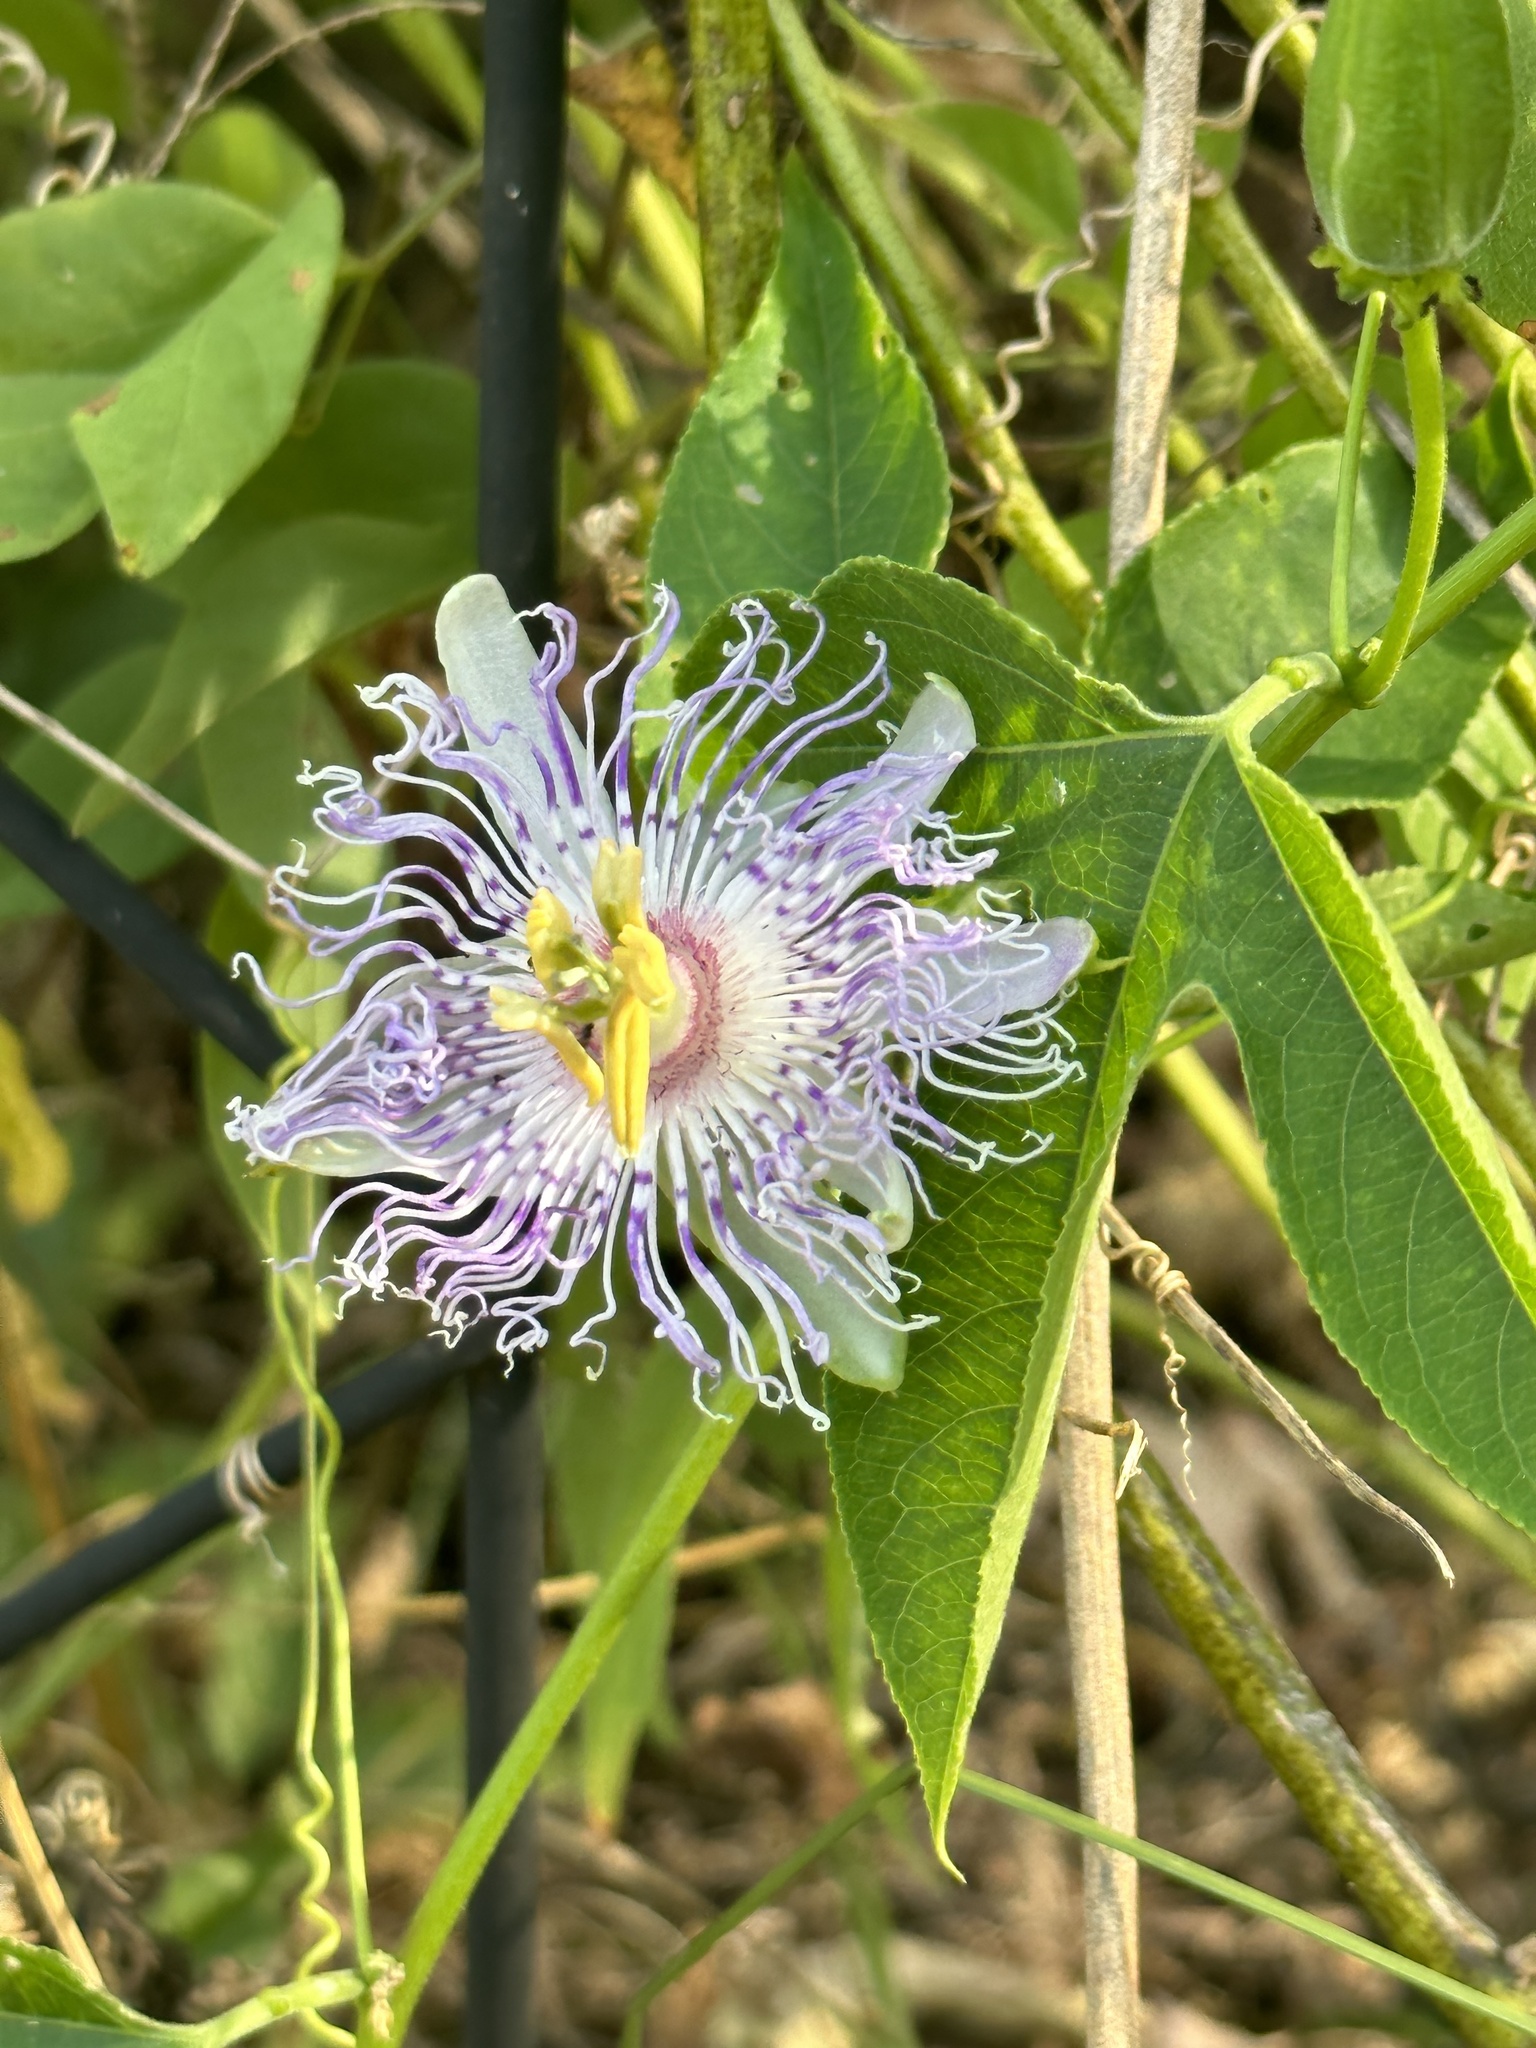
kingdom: Plantae
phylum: Tracheophyta
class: Magnoliopsida
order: Malpighiales
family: Passifloraceae
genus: Passiflora
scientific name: Passiflora incarnata
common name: Apricot-vine
